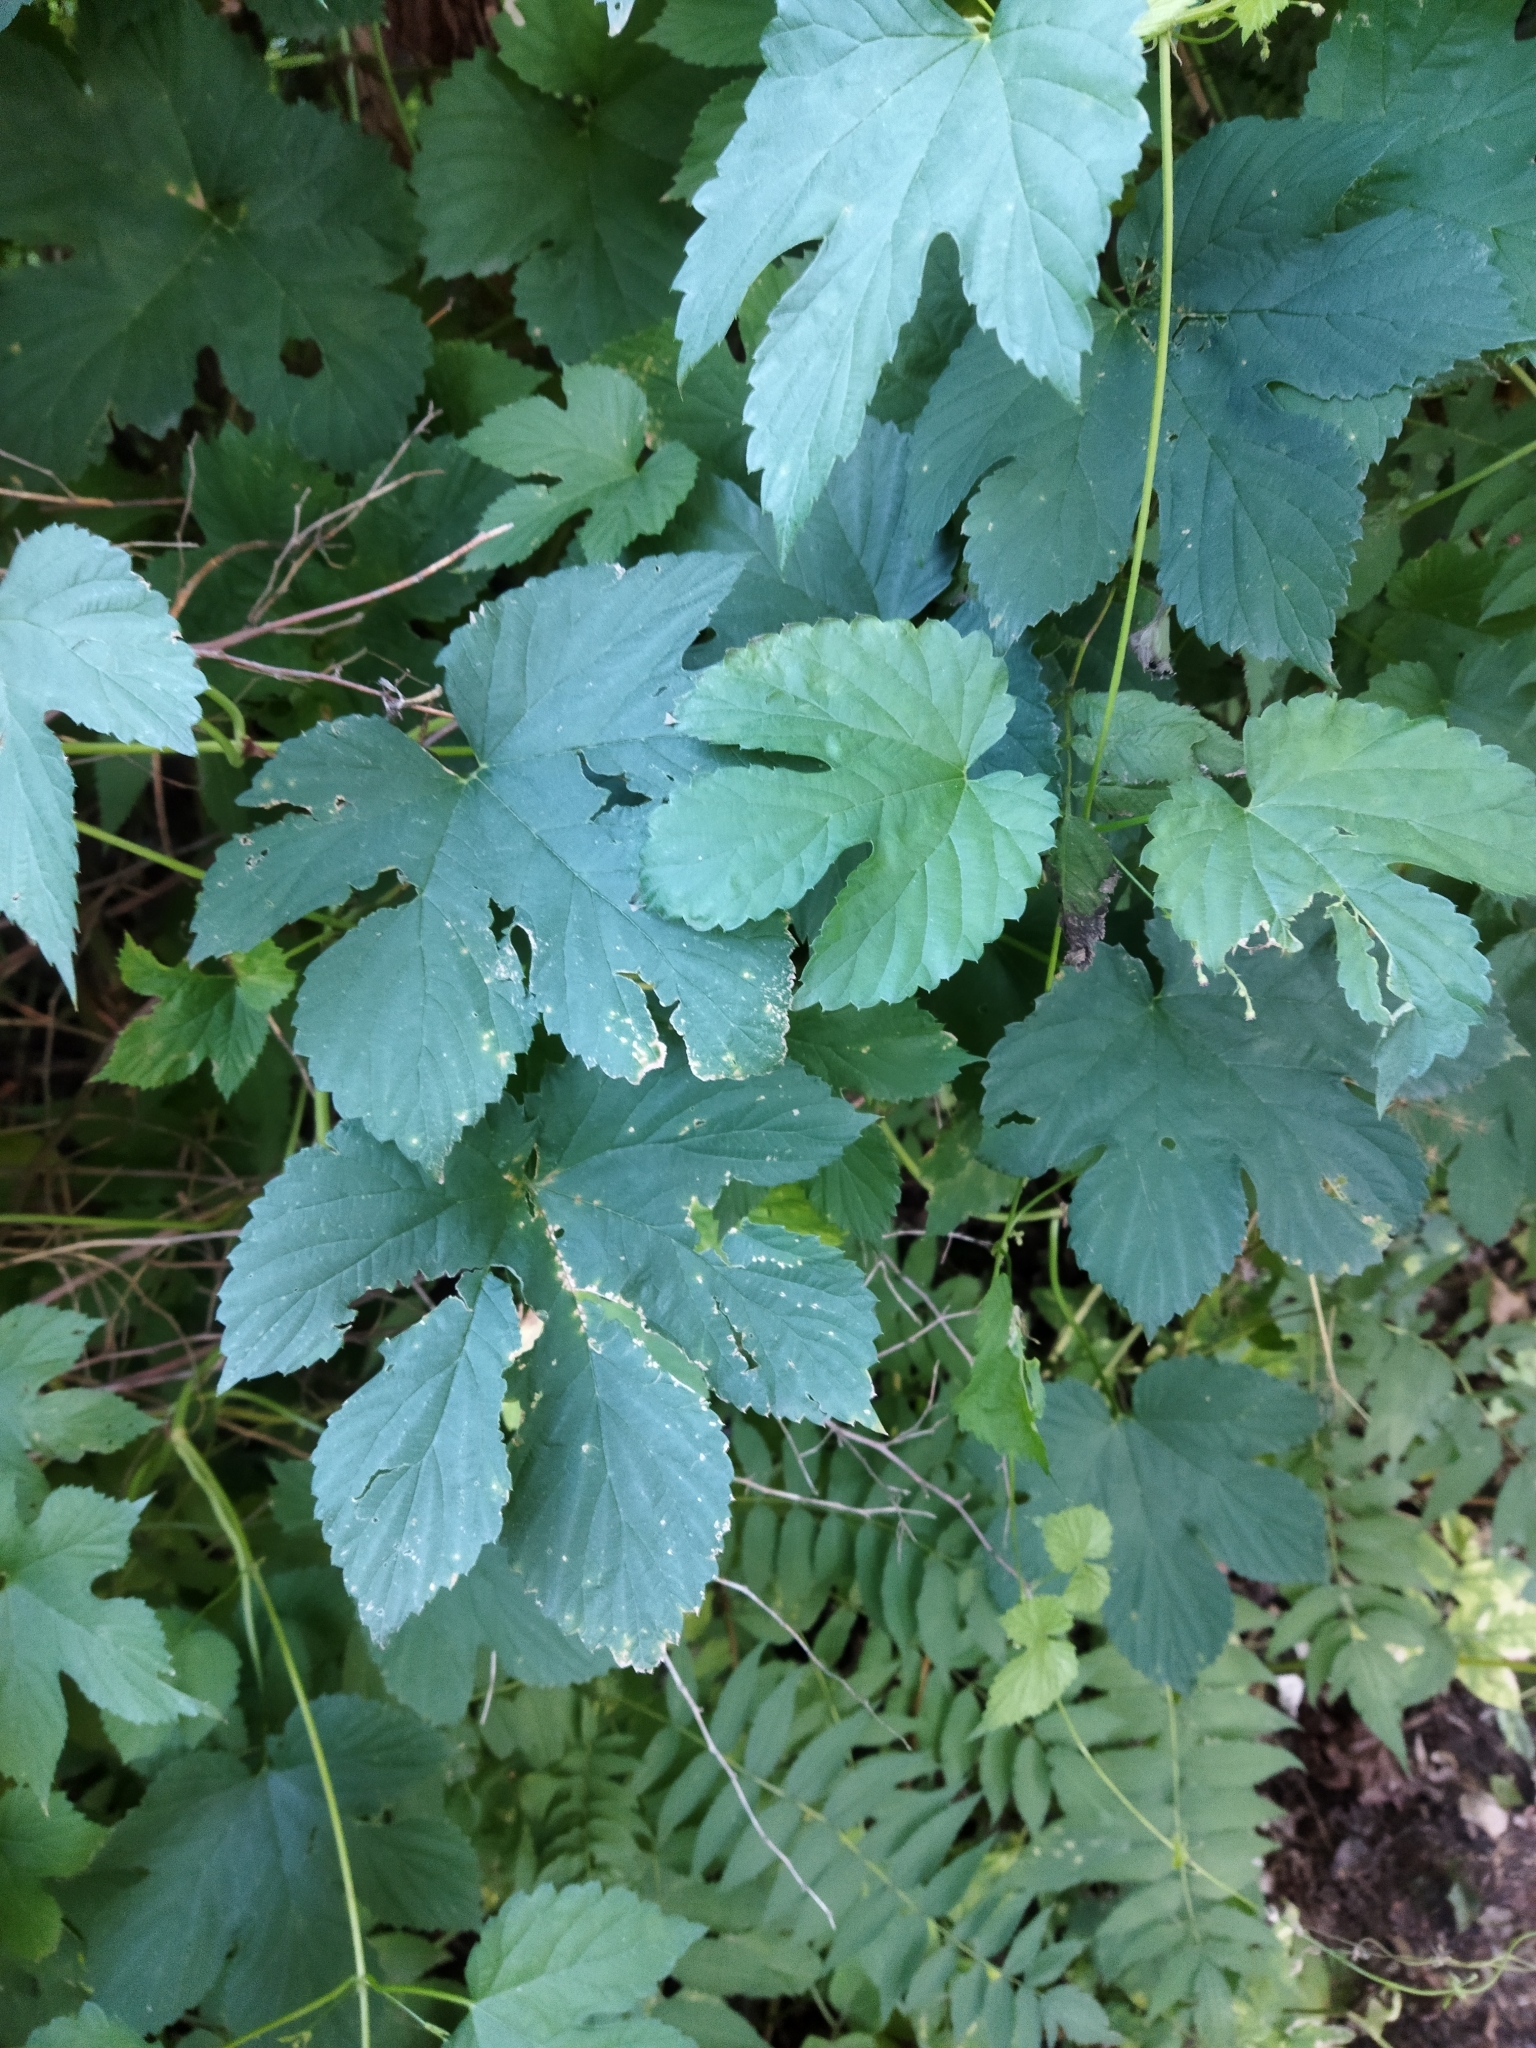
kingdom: Plantae
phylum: Tracheophyta
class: Magnoliopsida
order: Rosales
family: Cannabaceae
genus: Humulus
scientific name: Humulus lupulus
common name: Hop
